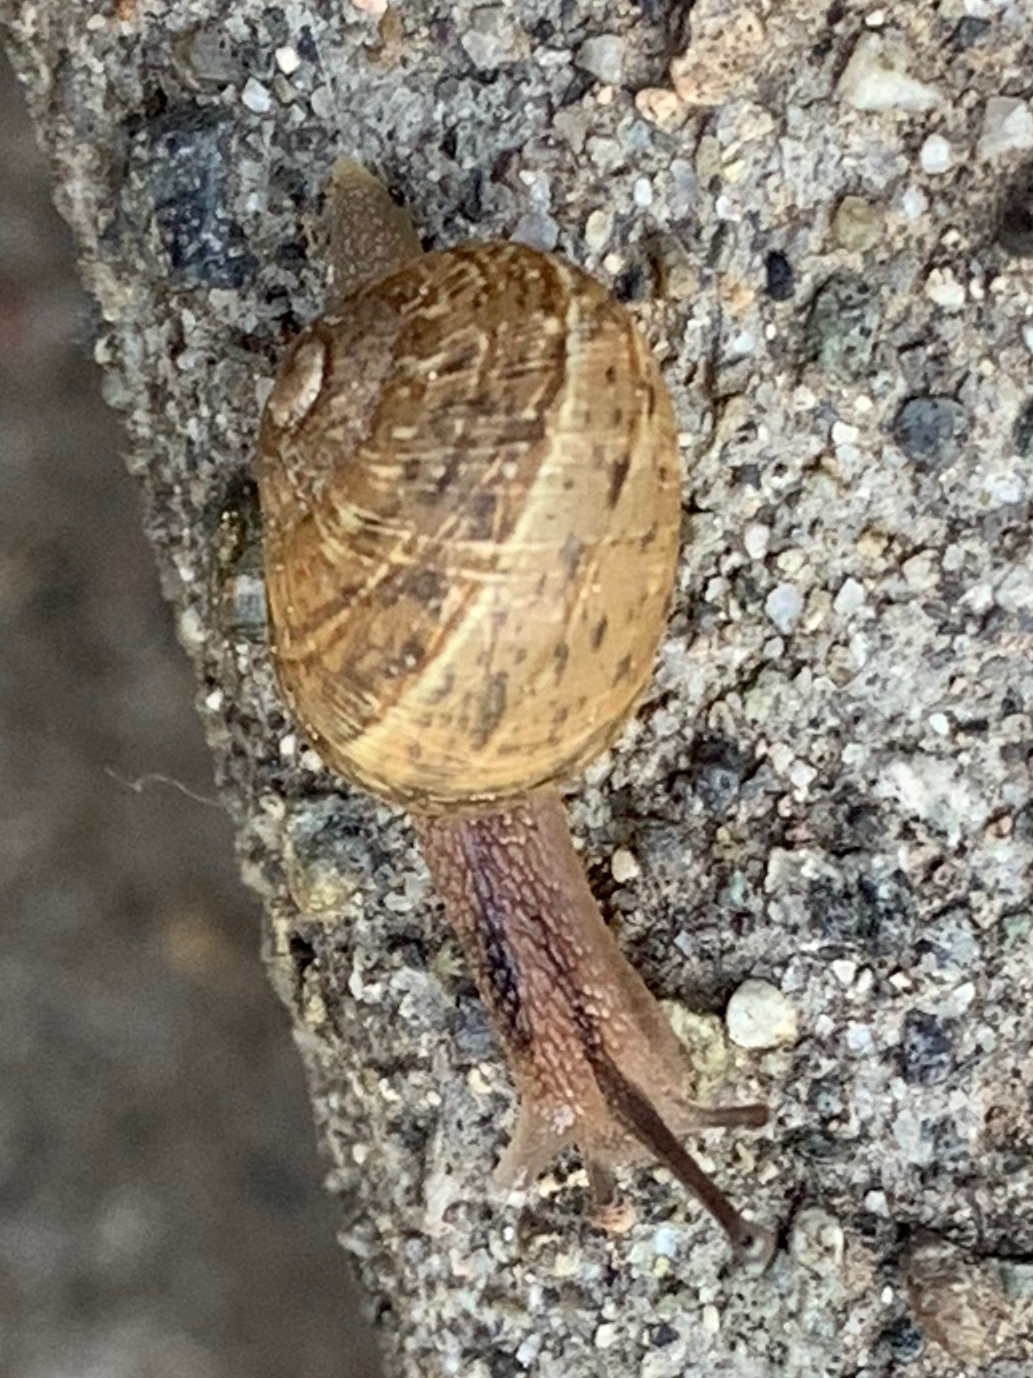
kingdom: Animalia
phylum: Mollusca
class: Gastropoda
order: Stylommatophora
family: Helicidae
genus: Cornu
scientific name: Cornu aspersum
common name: Brown garden snail
